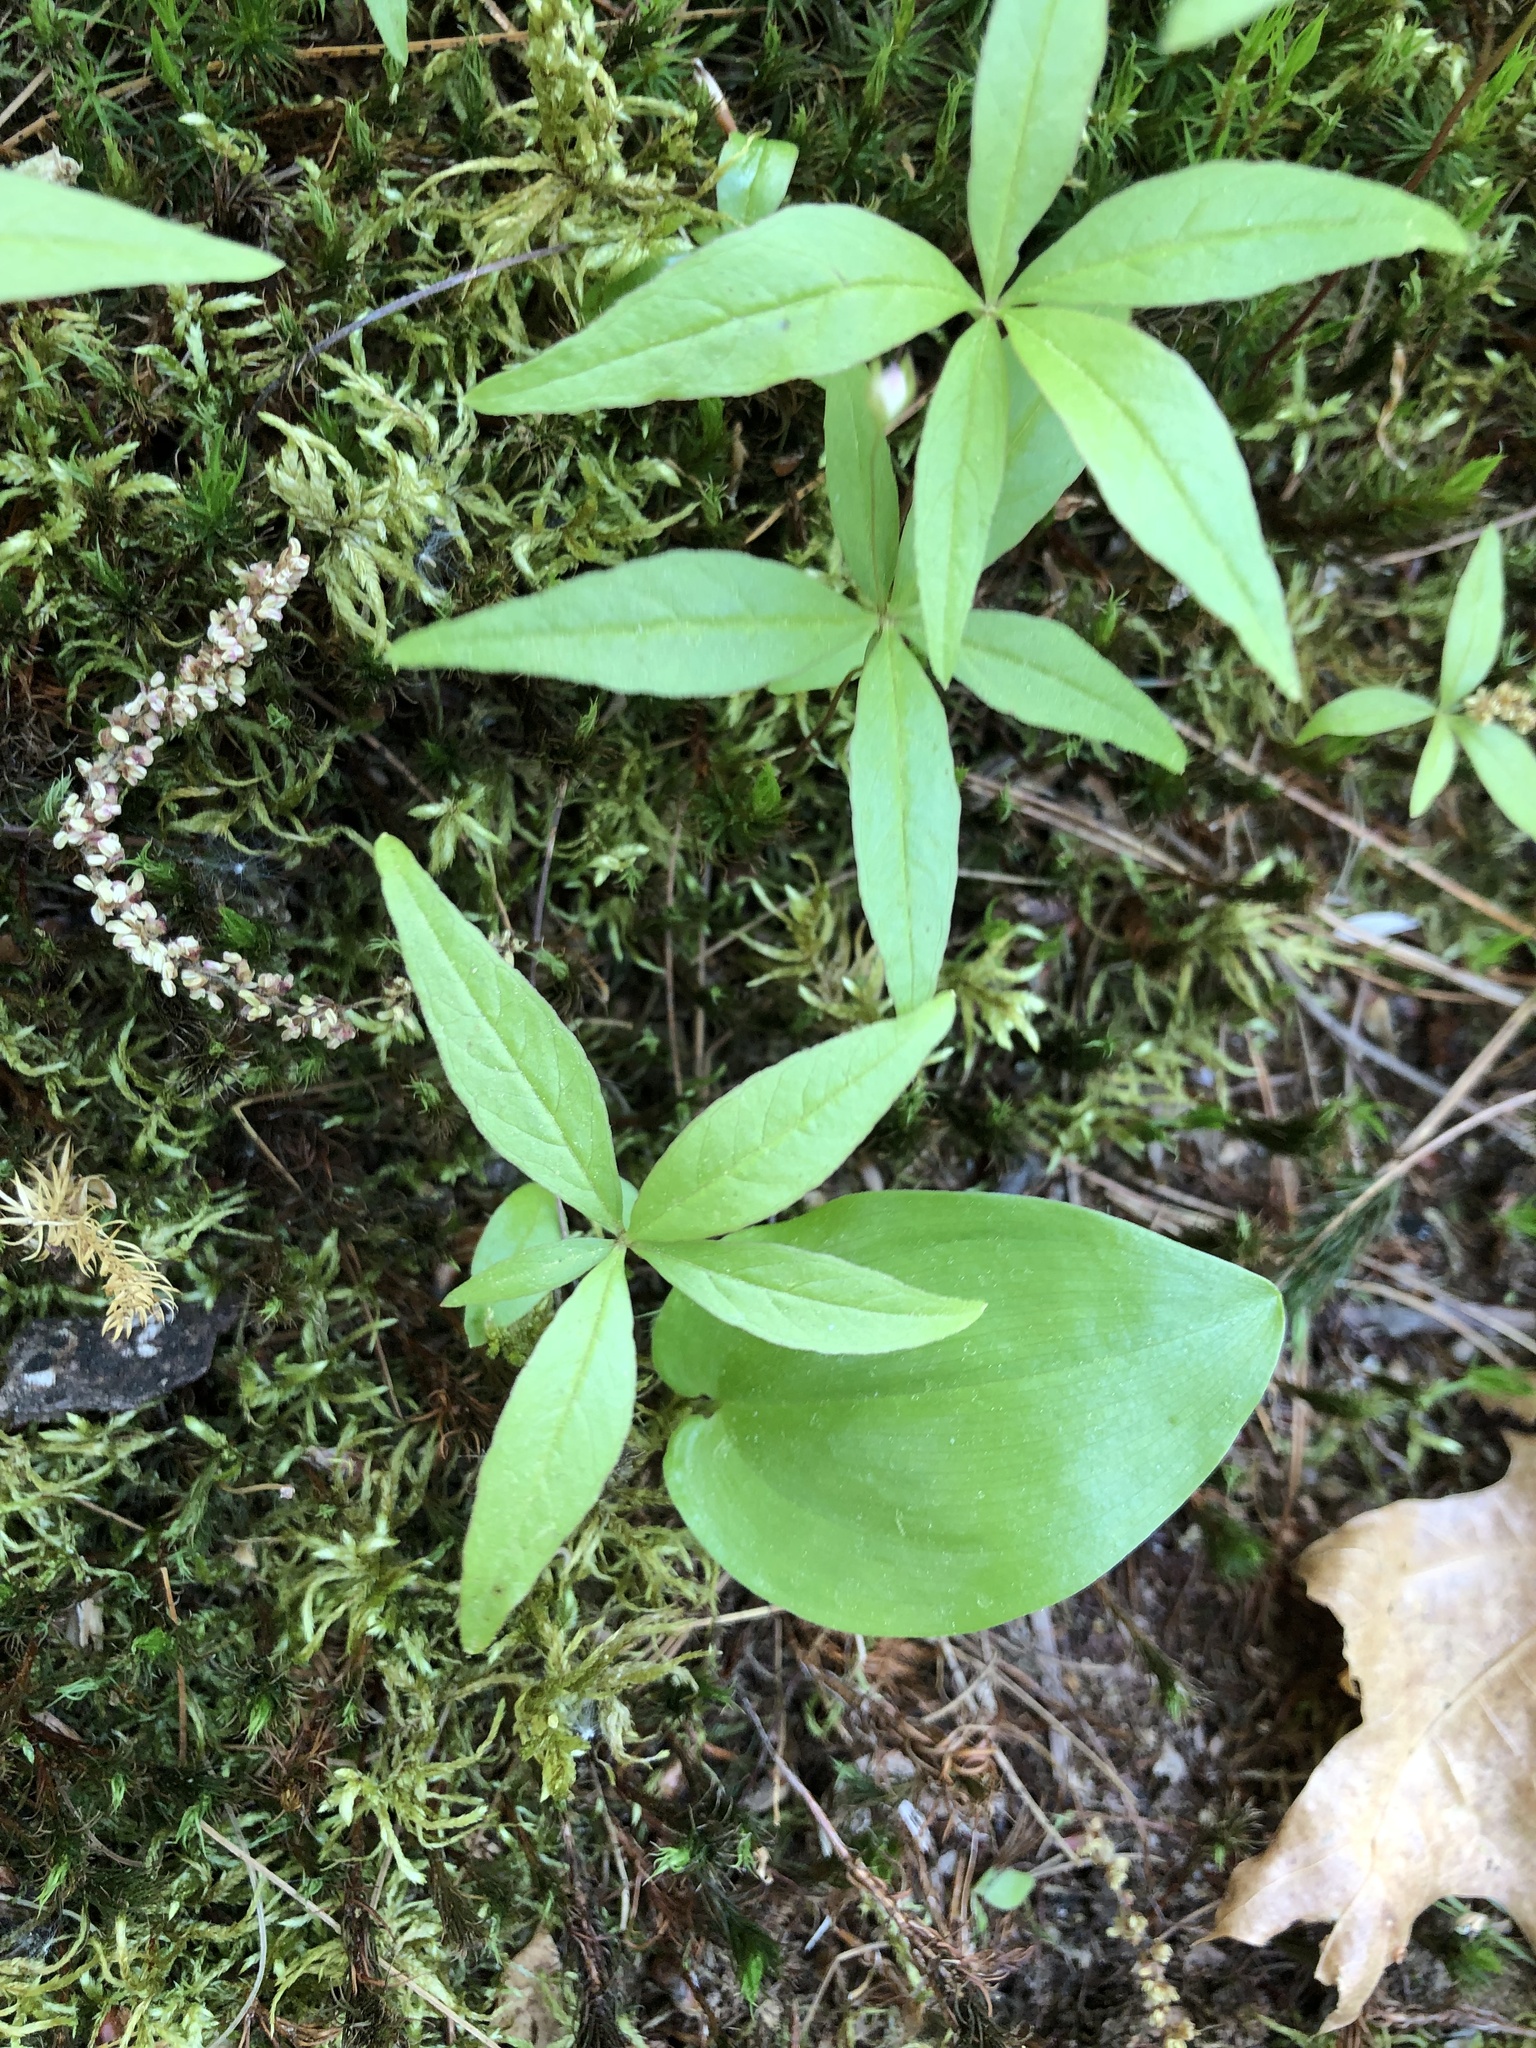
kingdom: Plantae
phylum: Tracheophyta
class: Magnoliopsida
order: Ericales
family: Primulaceae
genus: Lysimachia
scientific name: Lysimachia borealis
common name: American starflower
